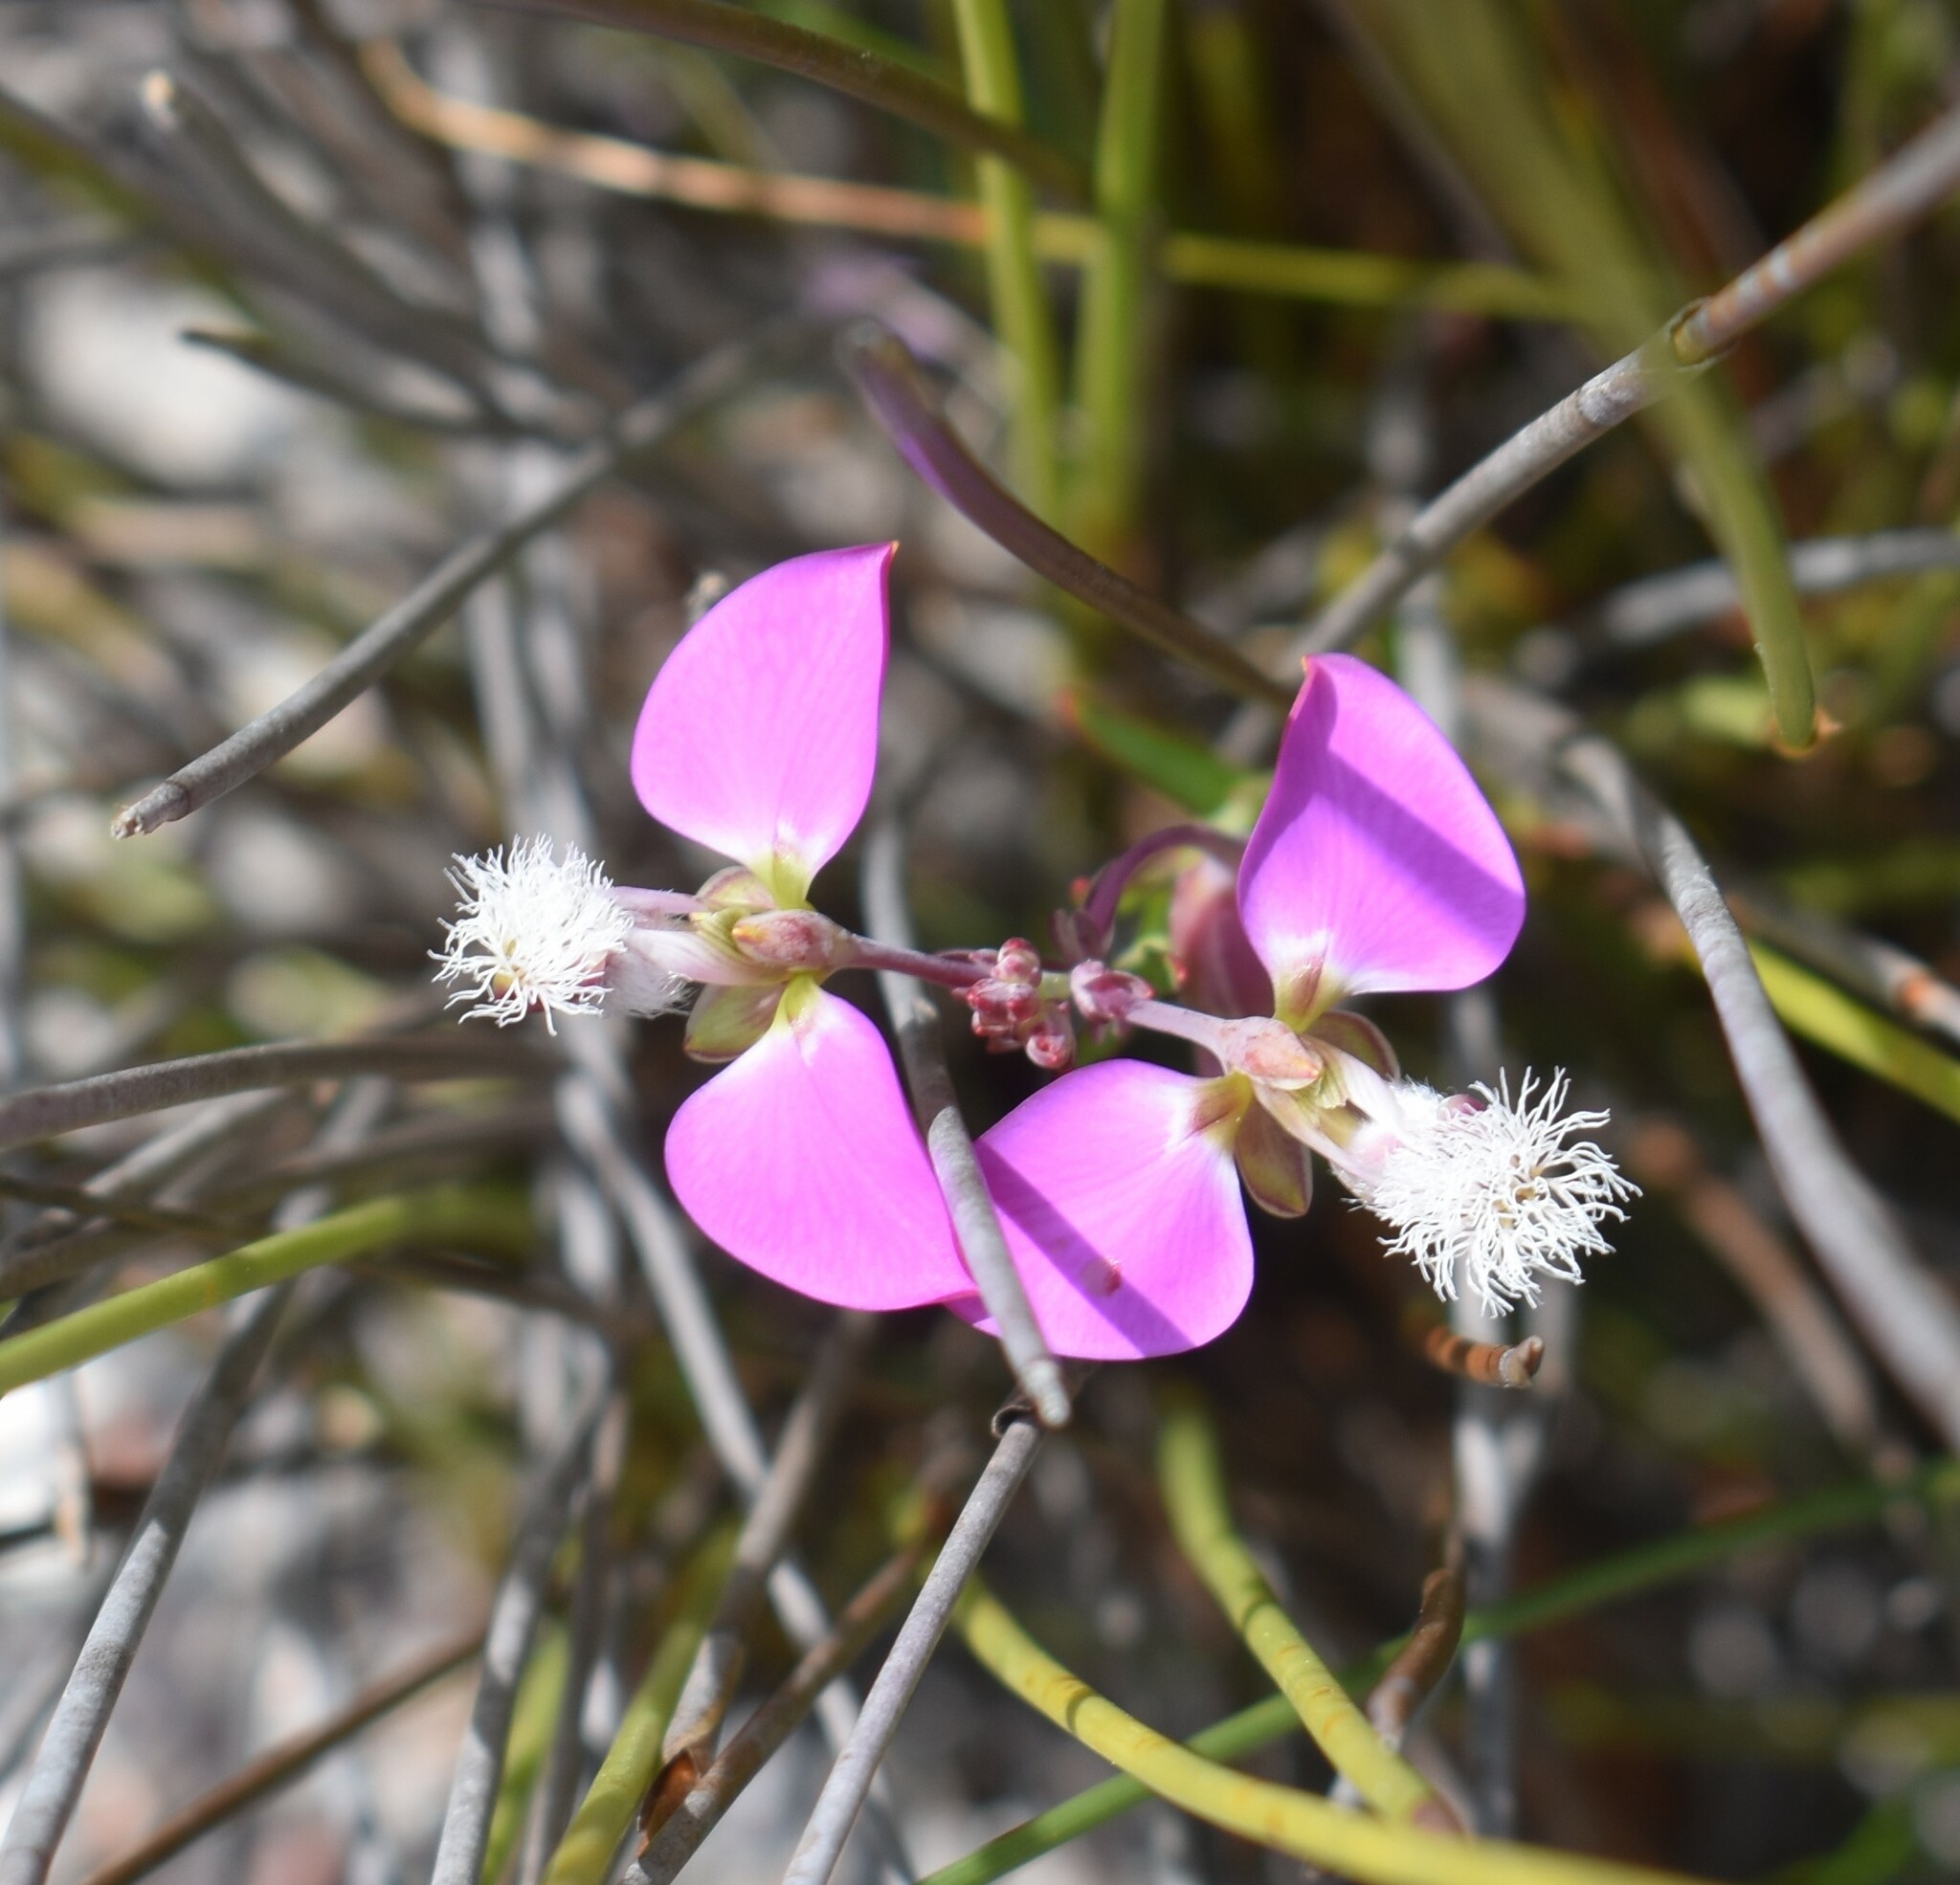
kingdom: Plantae
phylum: Tracheophyta
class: Magnoliopsida
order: Fabales
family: Polygalaceae
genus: Polygala
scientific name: Polygala bracteolata
